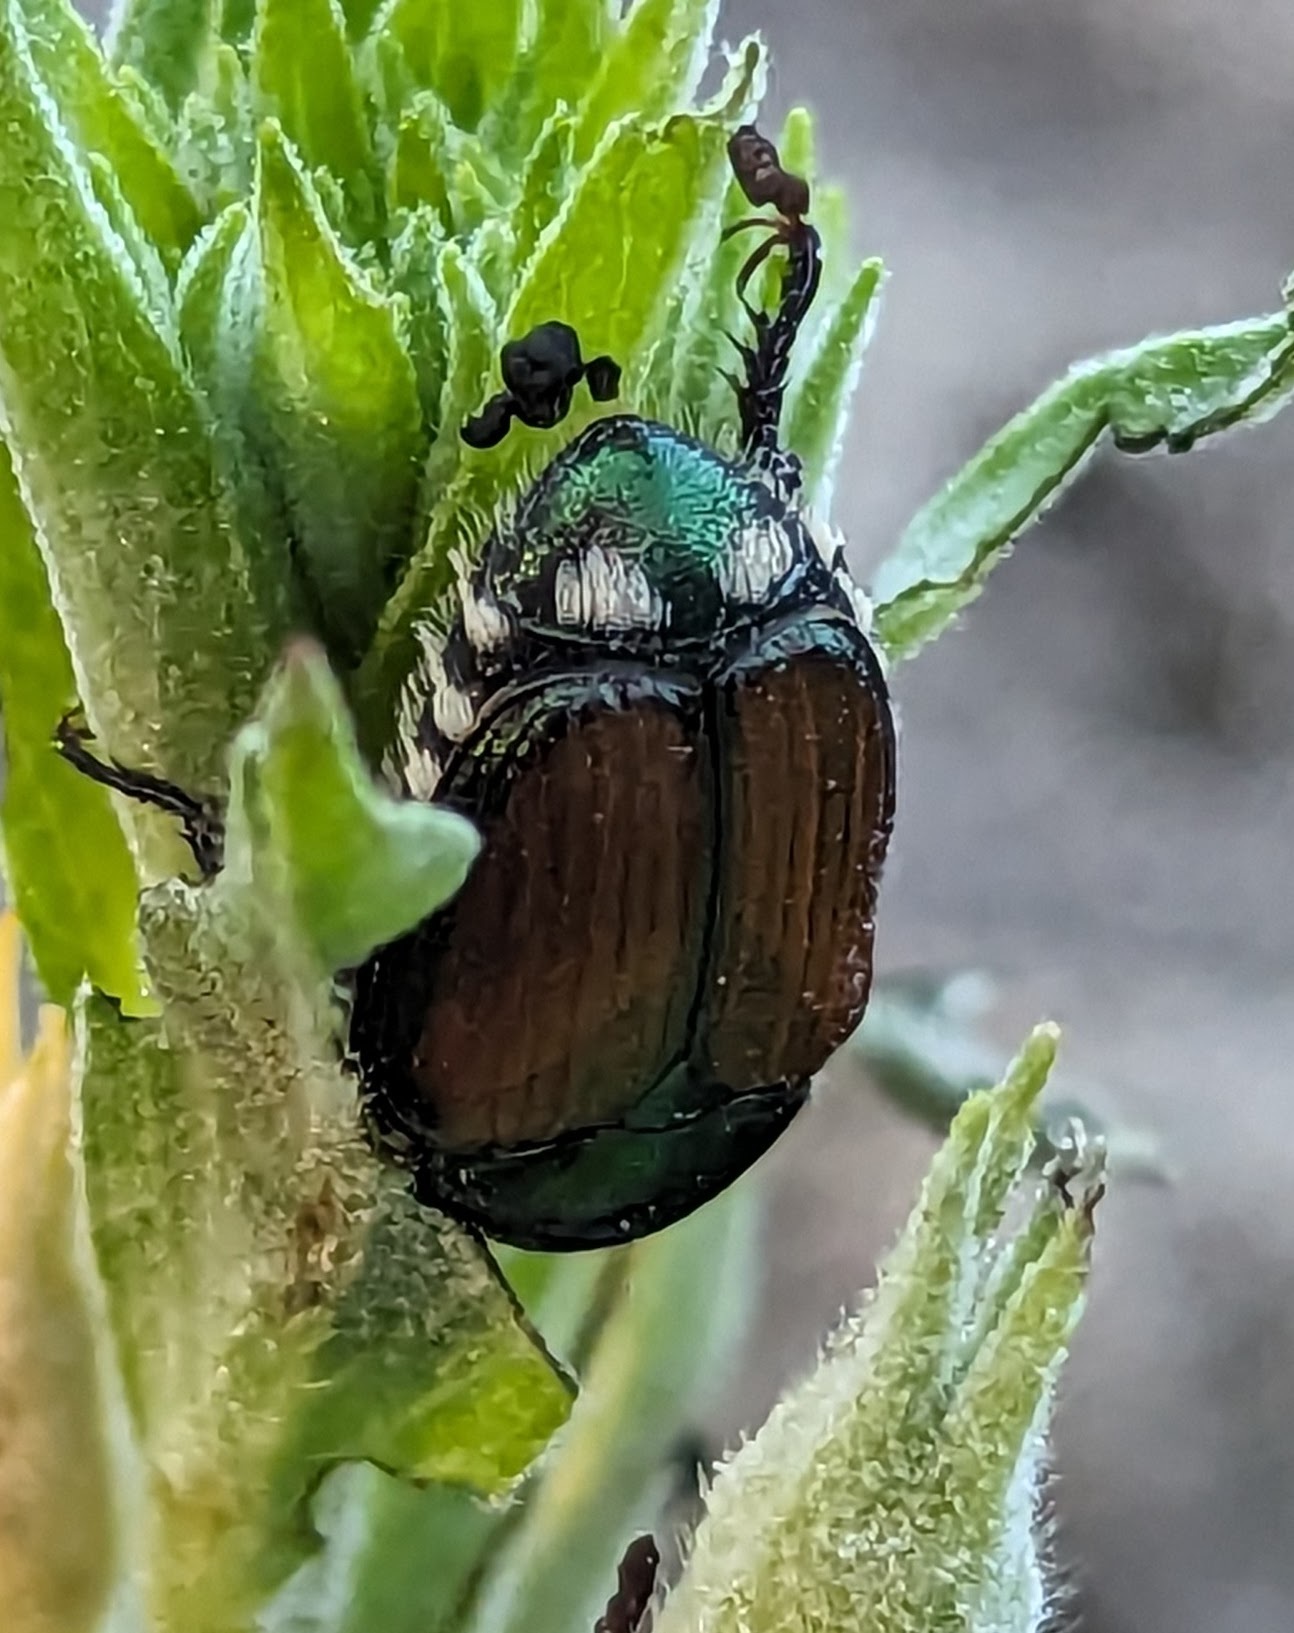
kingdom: Animalia
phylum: Arthropoda
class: Insecta
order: Coleoptera
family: Scarabaeidae
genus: Popillia
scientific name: Popillia japonica
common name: Japanese beetle
